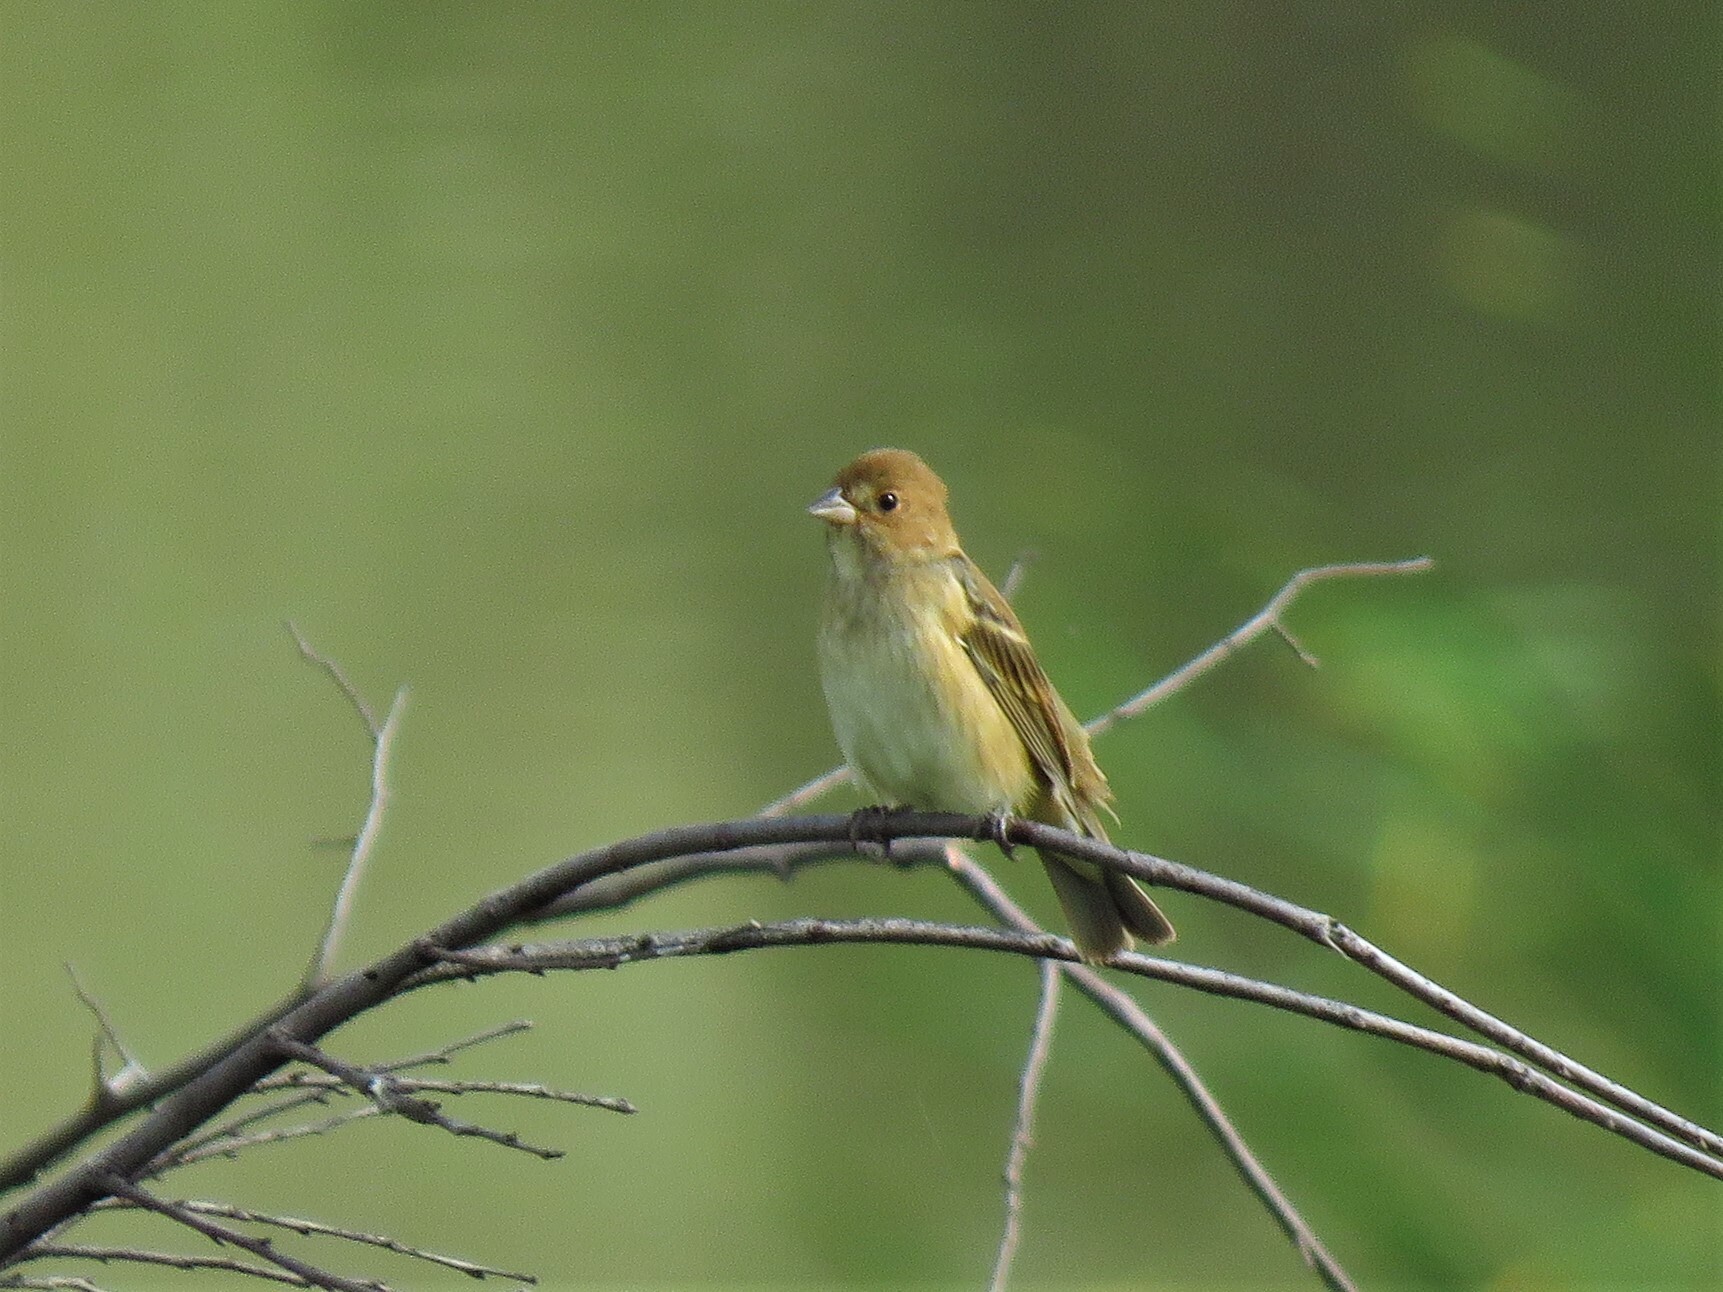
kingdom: Animalia
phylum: Chordata
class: Aves
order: Passeriformes
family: Cardinalidae
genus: Passerina
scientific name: Passerina cyanea
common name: Indigo bunting
